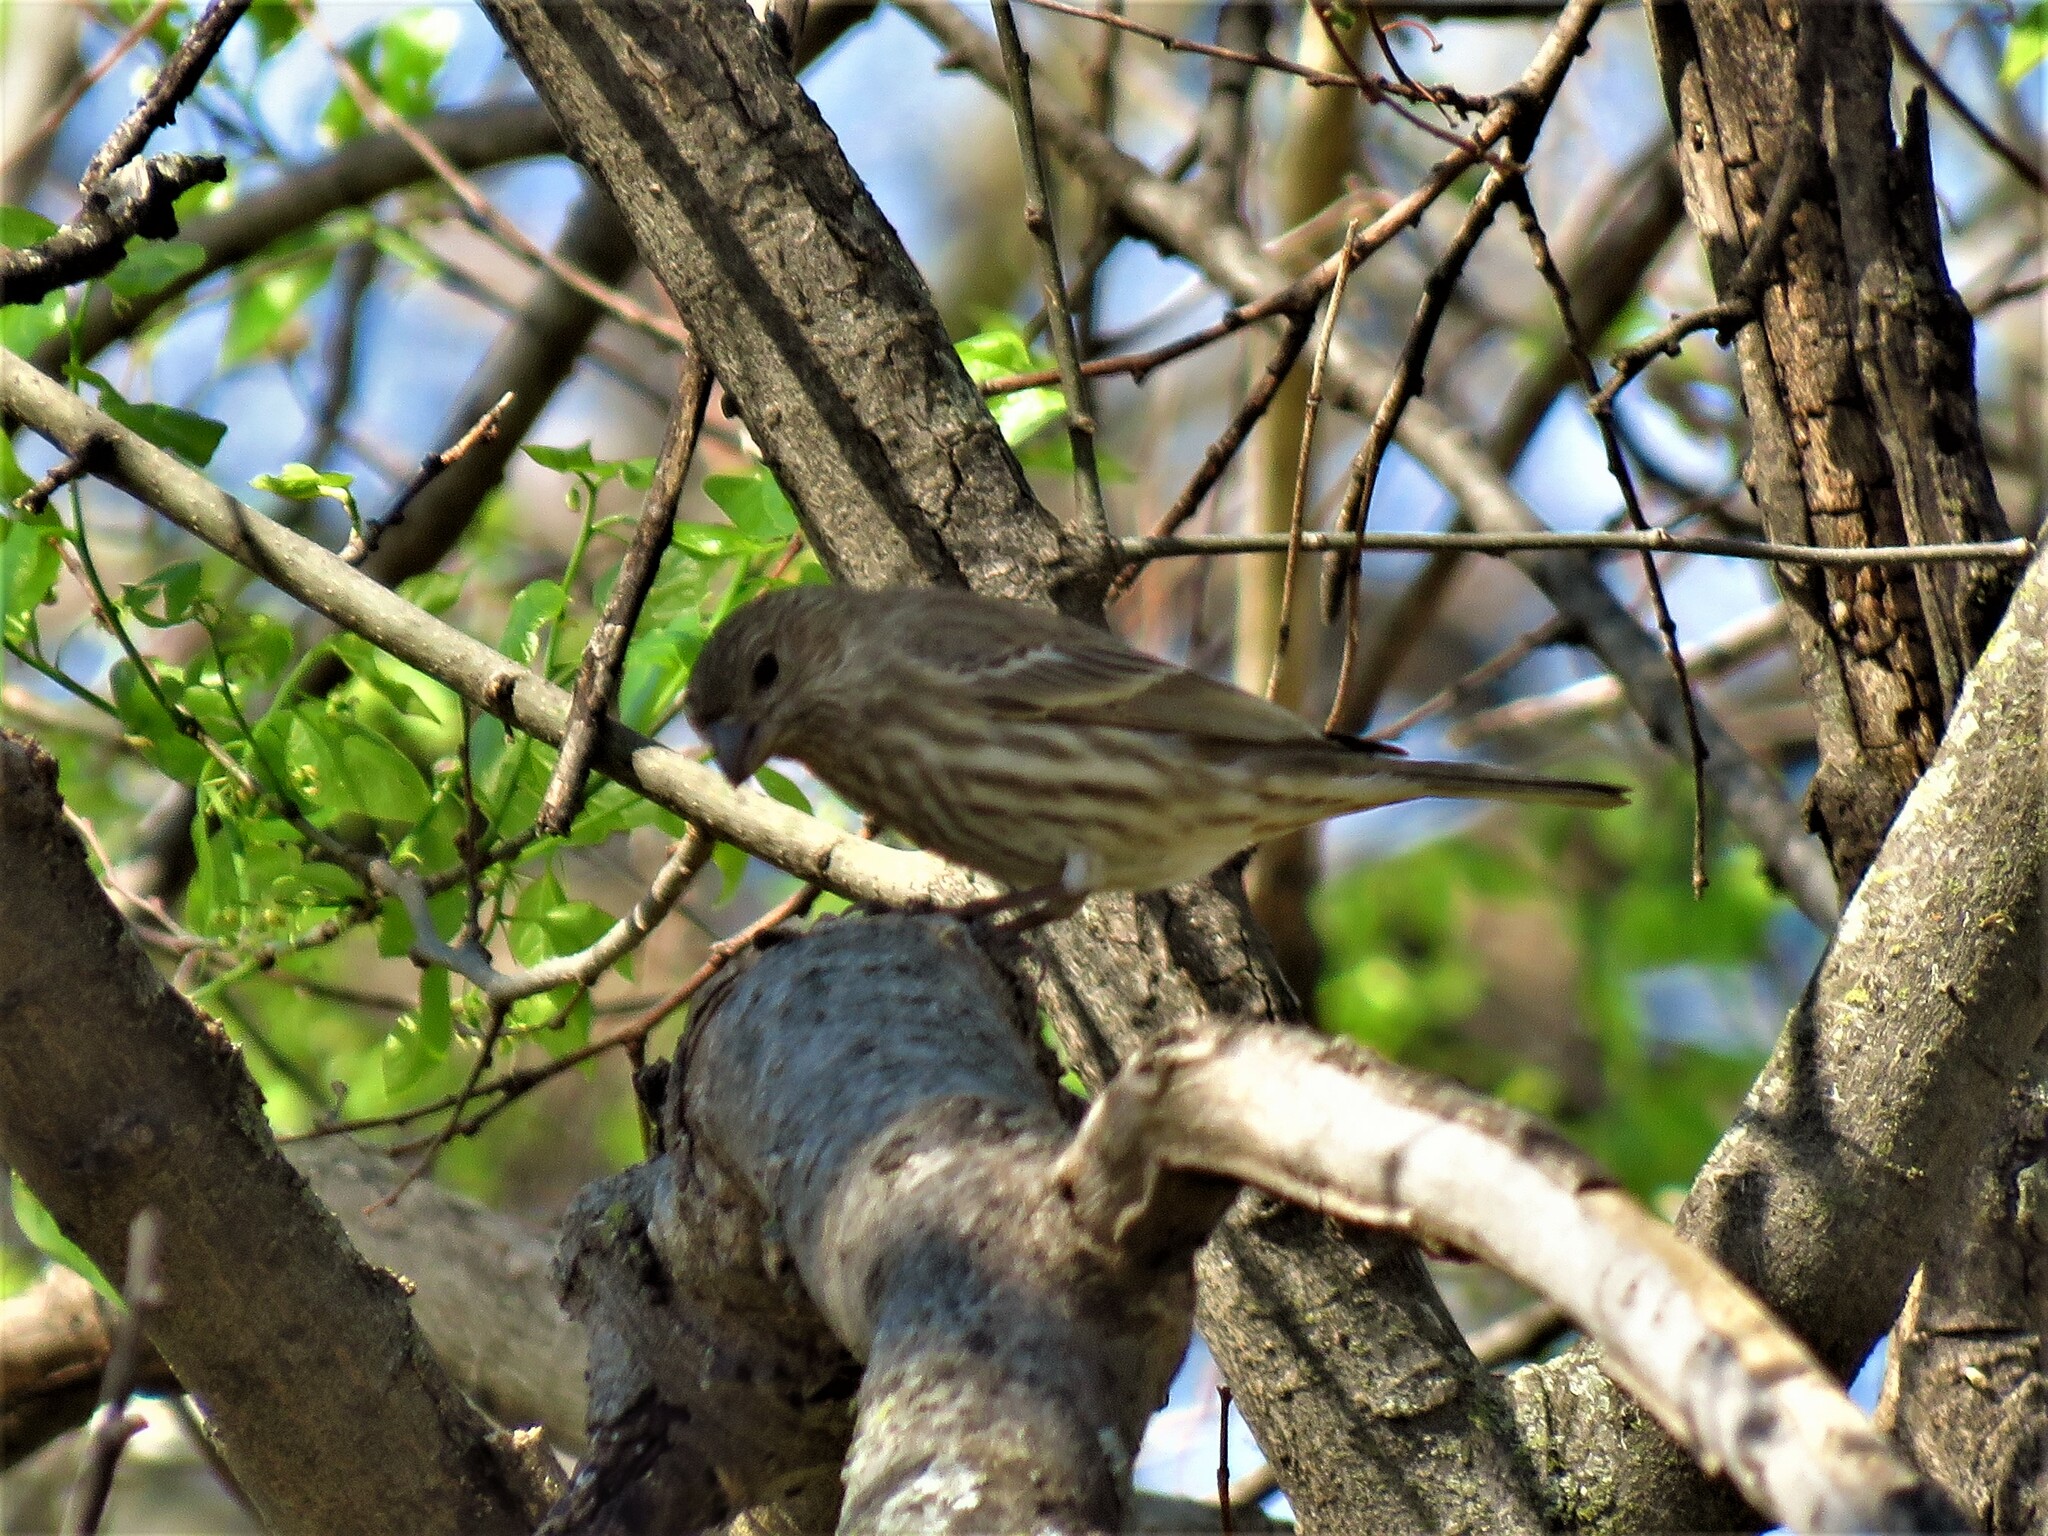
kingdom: Animalia
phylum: Chordata
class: Aves
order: Passeriformes
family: Fringillidae
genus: Haemorhous
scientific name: Haemorhous mexicanus
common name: House finch
